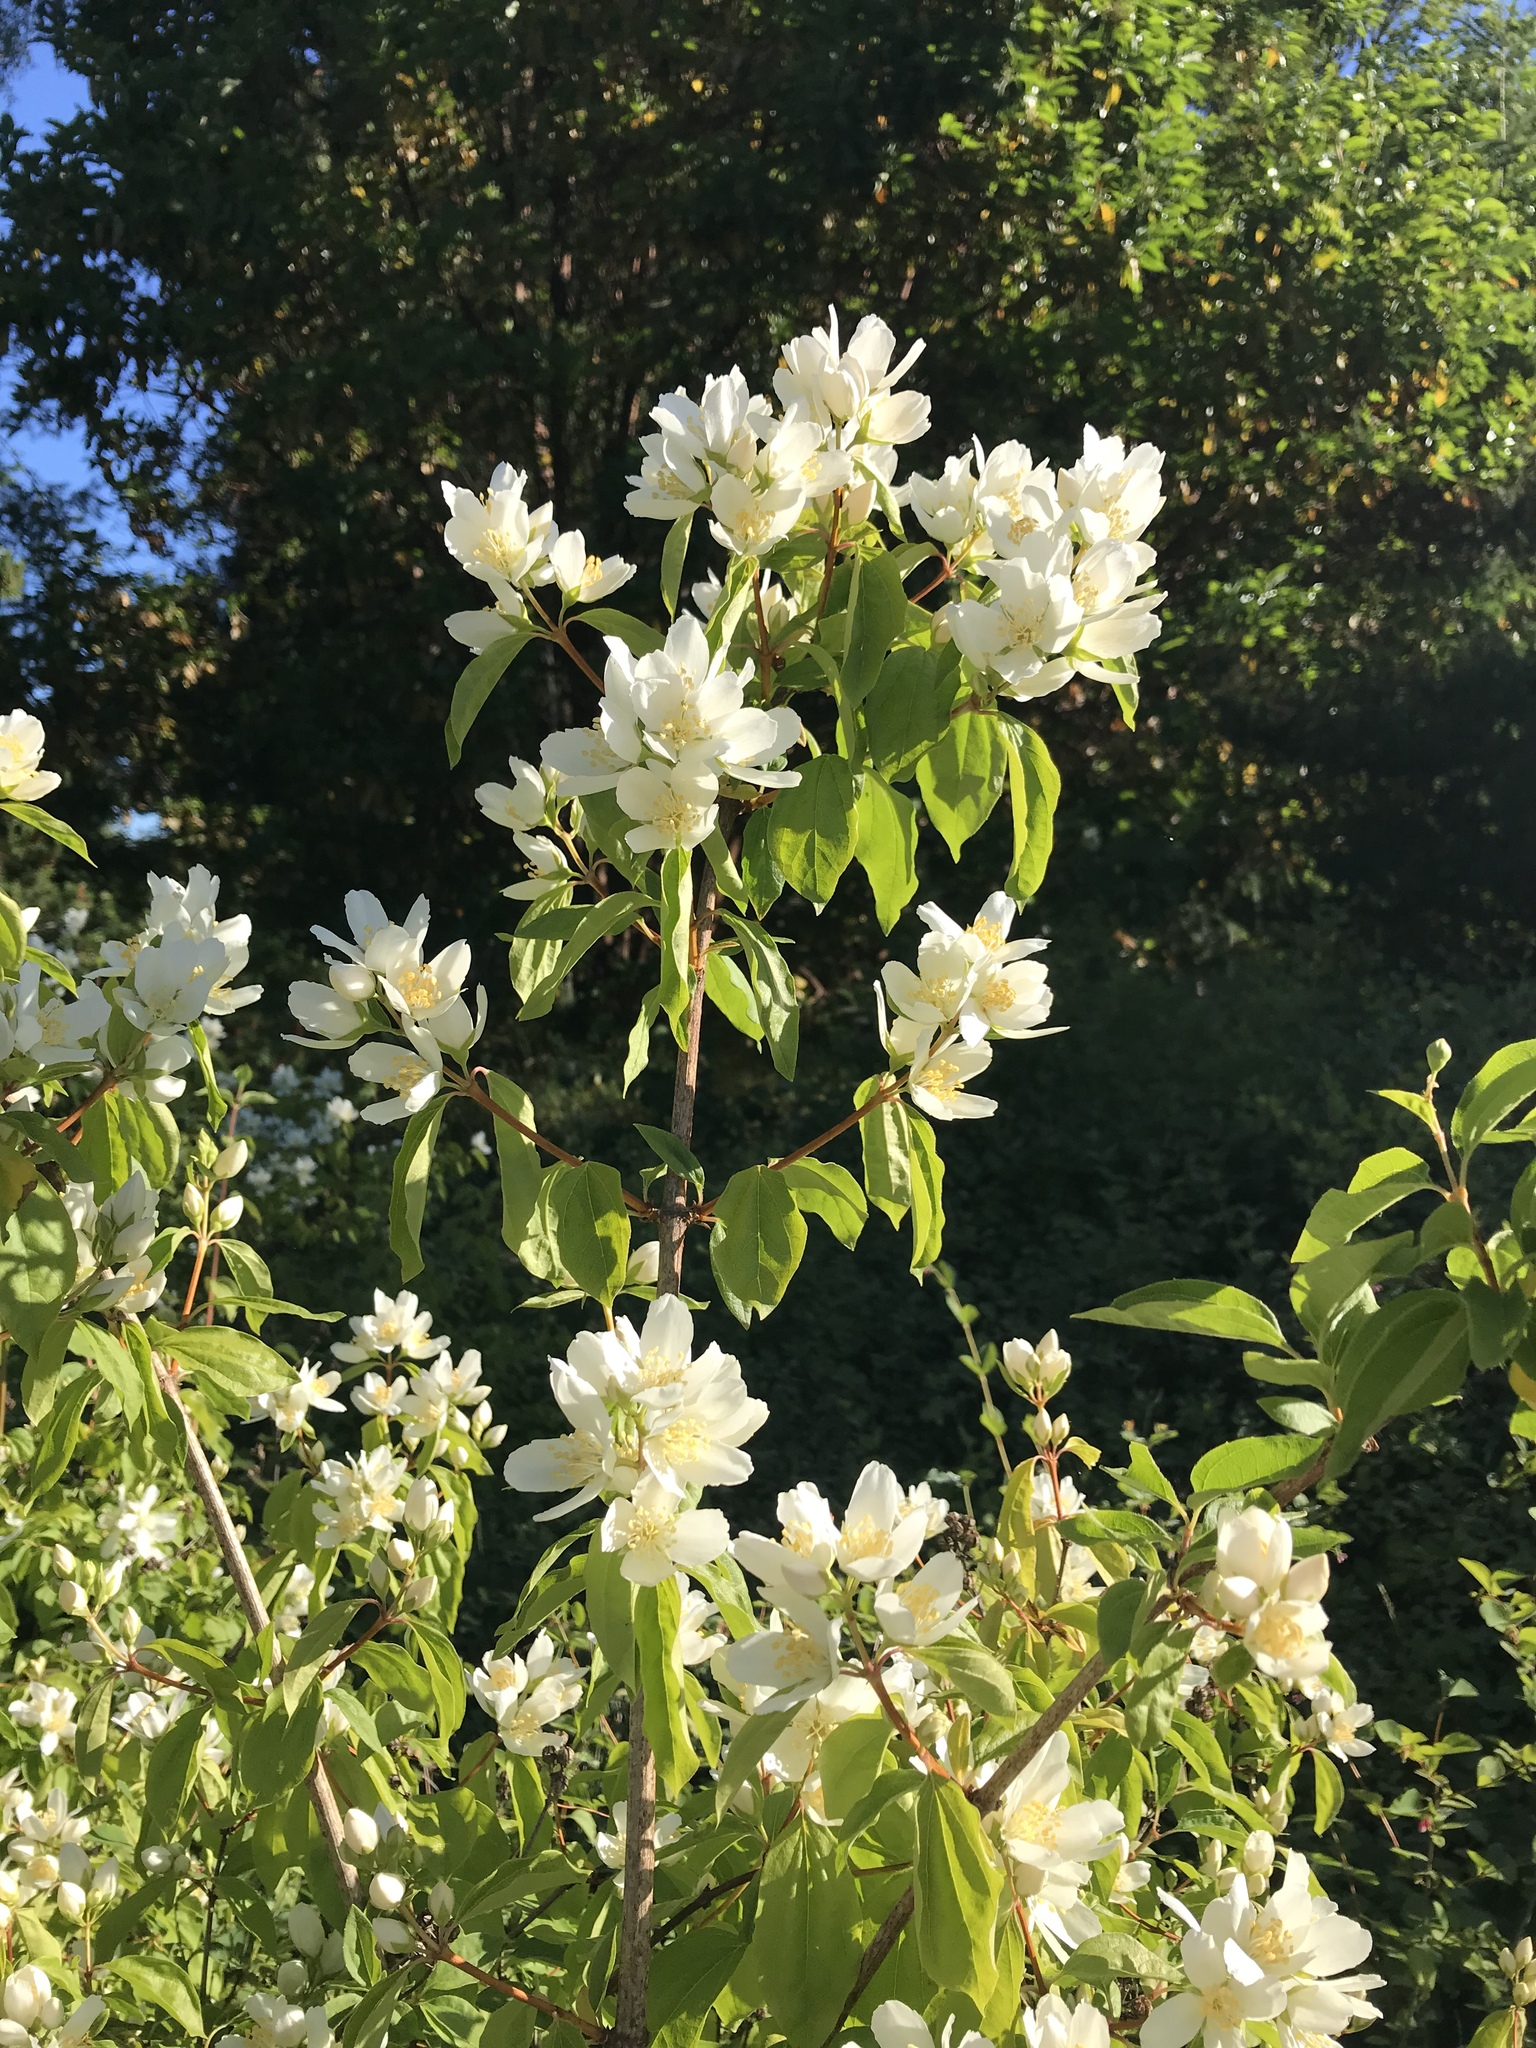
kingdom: Plantae
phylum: Tracheophyta
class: Magnoliopsida
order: Cornales
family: Hydrangeaceae
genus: Philadelphus
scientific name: Philadelphus lewisii
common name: Lewis's mock orange
